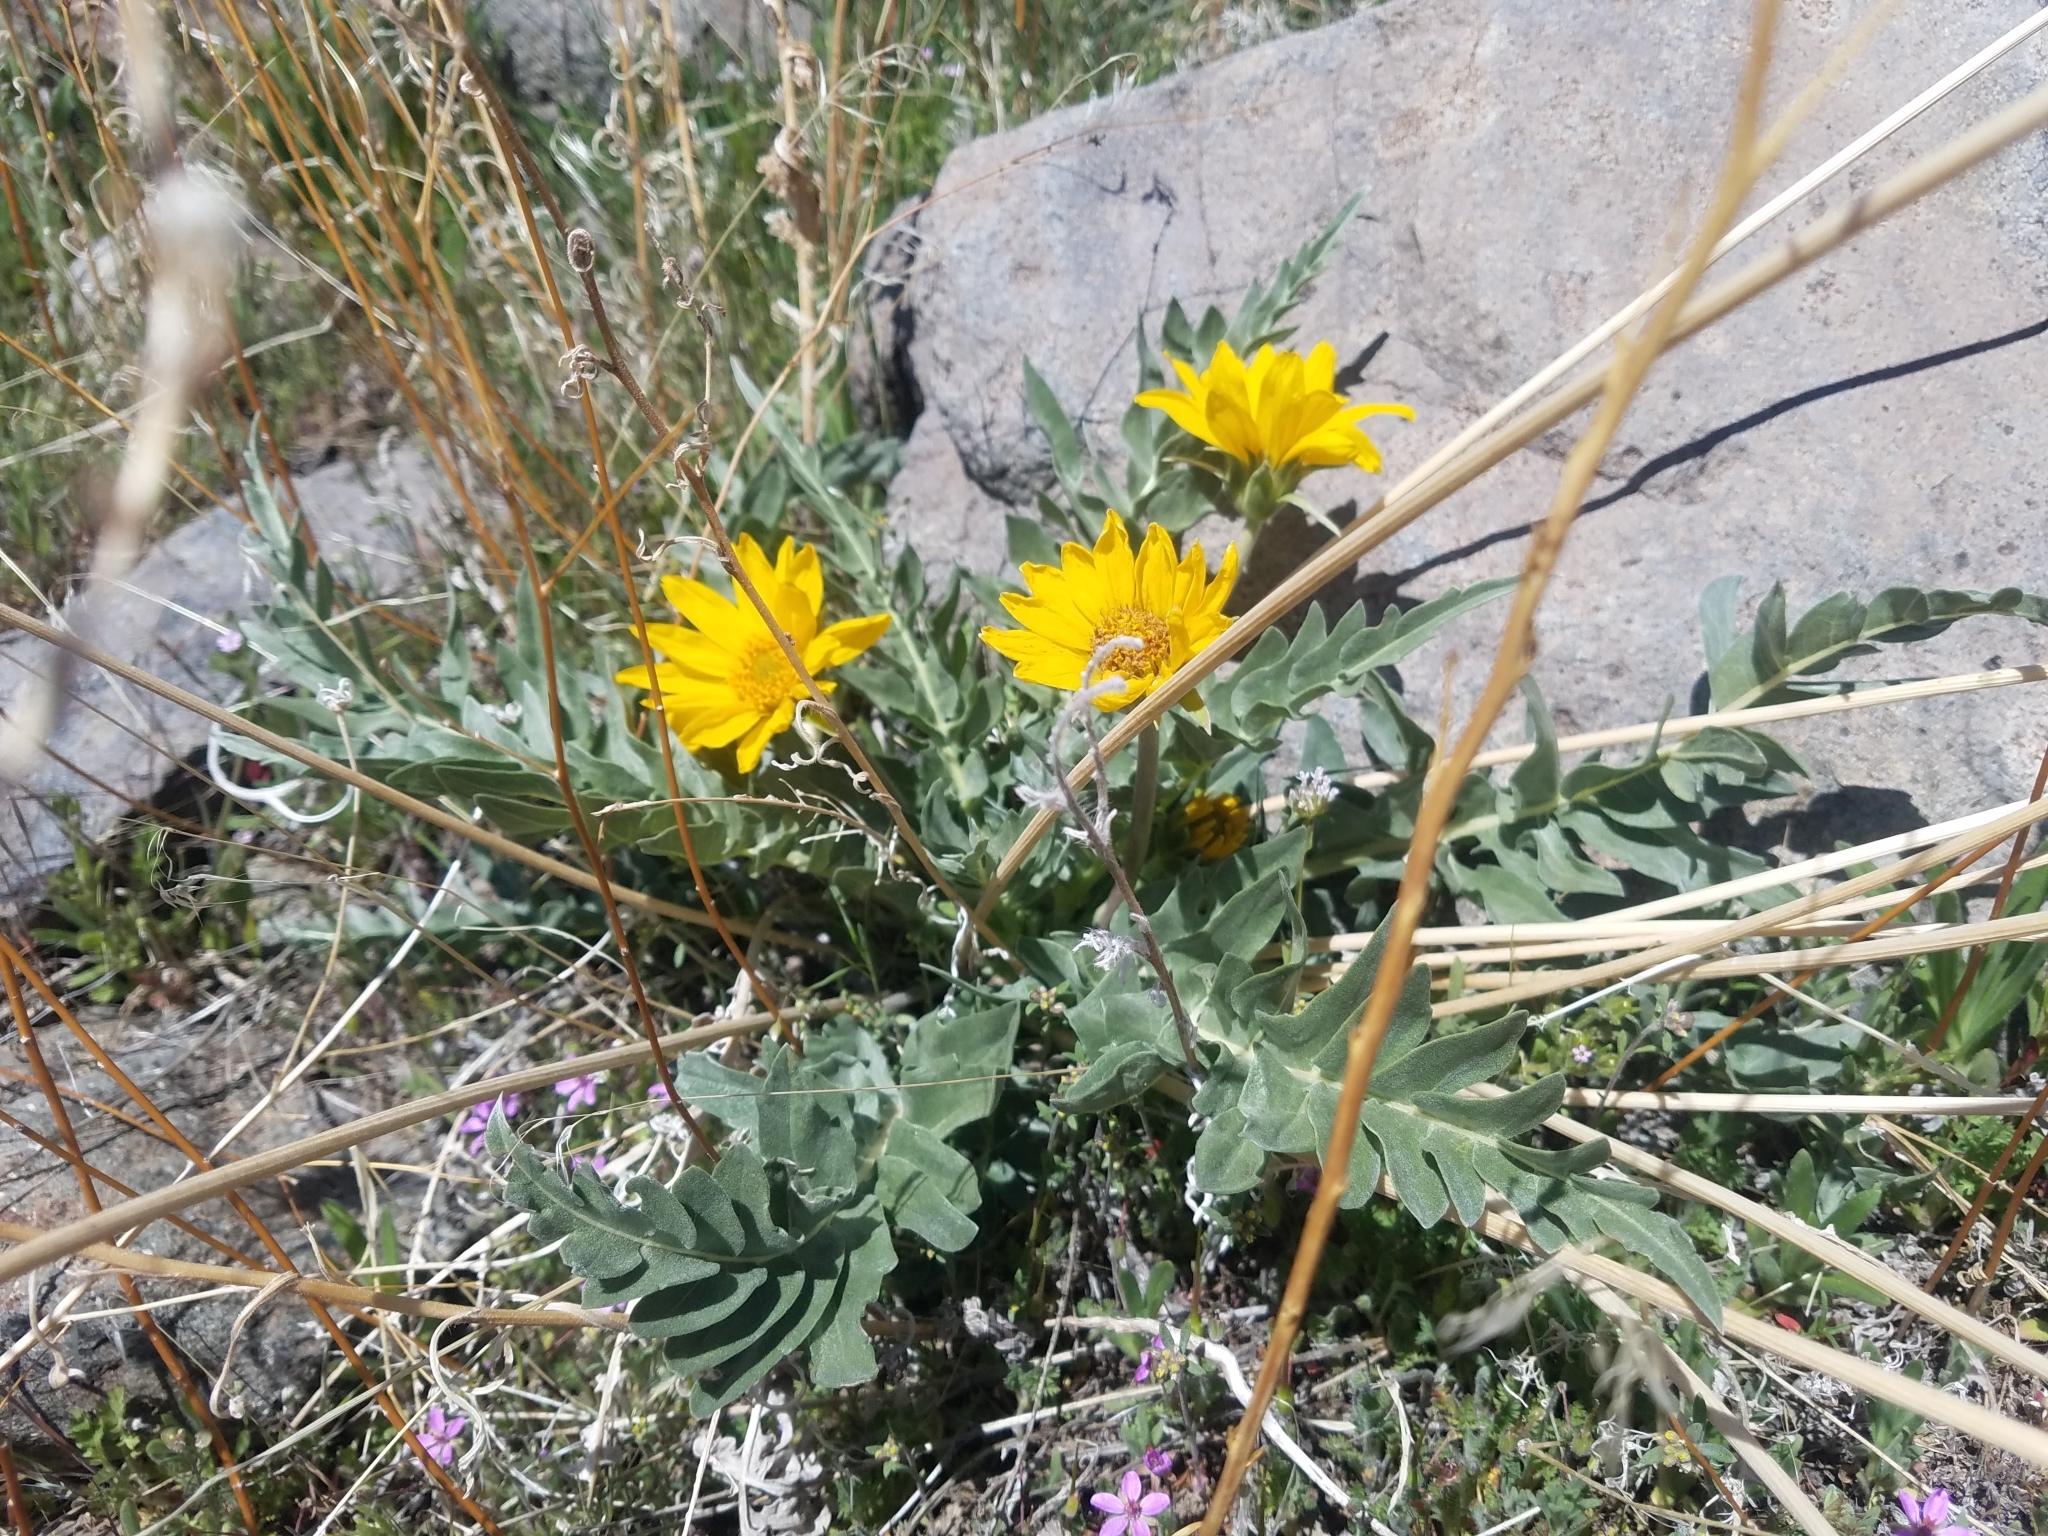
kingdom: Plantae
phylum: Tracheophyta
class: Magnoliopsida
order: Asterales
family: Asteraceae
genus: Balsamorhiza
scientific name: Balsamorhiza hookeri
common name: Hooker's balsamroot
